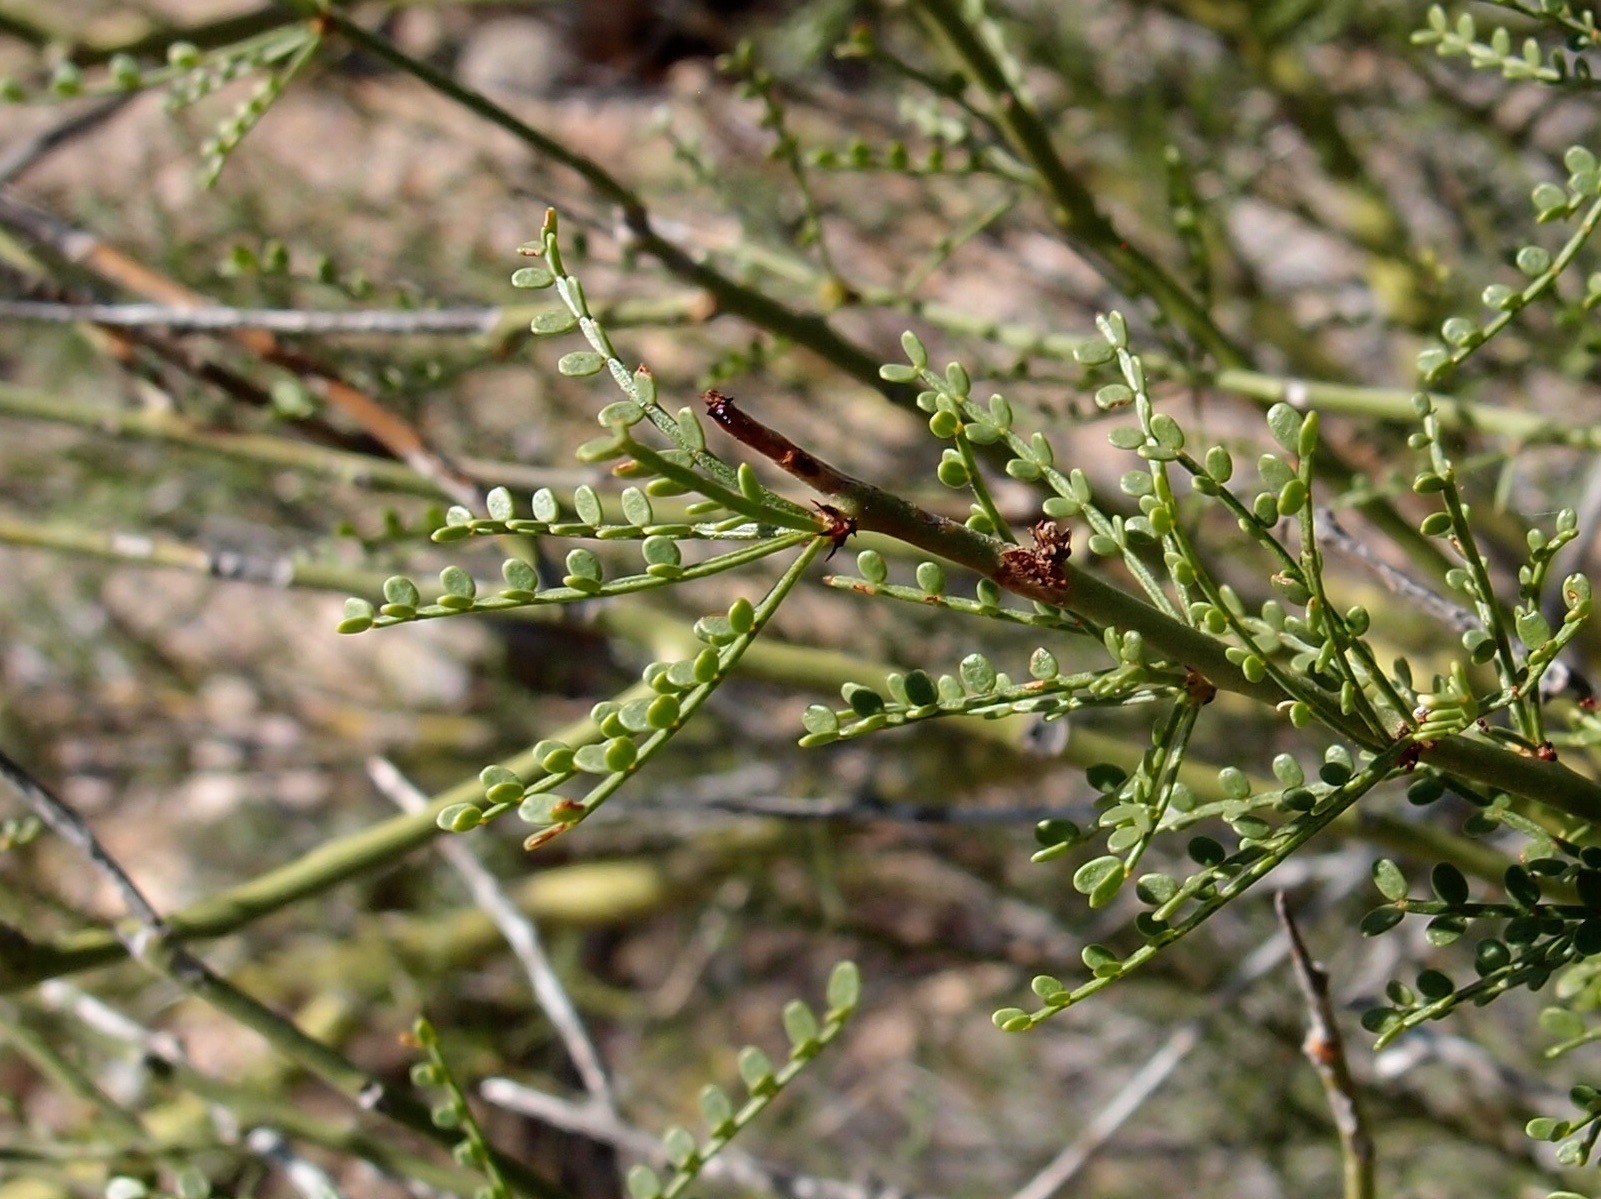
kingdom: Plantae
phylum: Tracheophyta
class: Magnoliopsida
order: Fabales
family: Fabaceae
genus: Parkinsonia
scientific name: Parkinsonia microphylla
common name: Yellow paloverde
